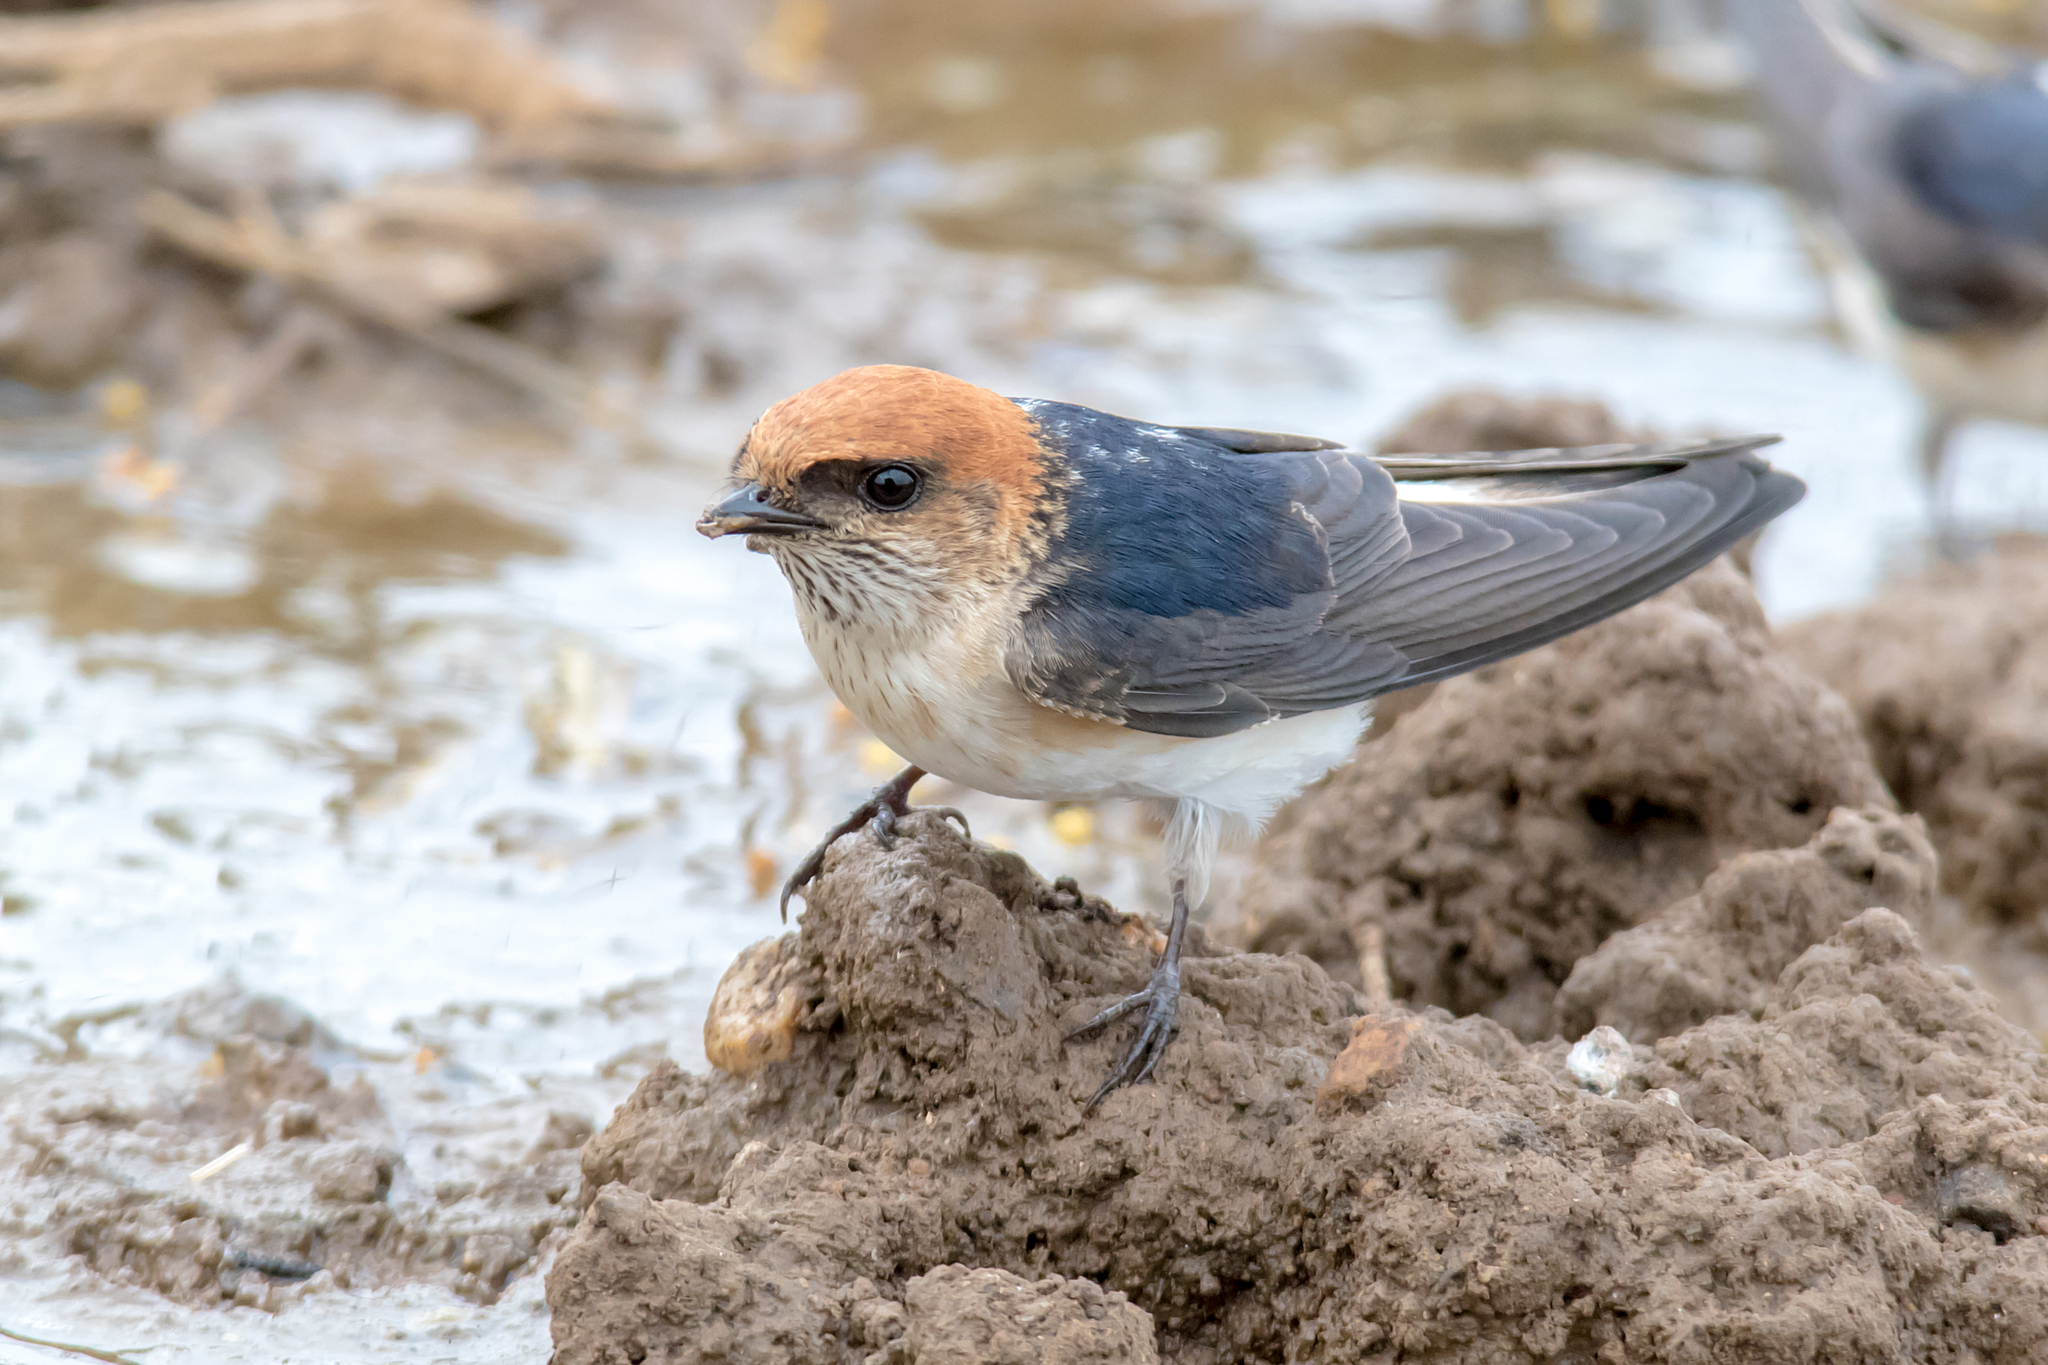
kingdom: Animalia
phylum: Chordata
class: Aves
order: Passeriformes
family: Hirundinidae
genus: Petrochelidon
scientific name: Petrochelidon ariel
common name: Fairy martin
